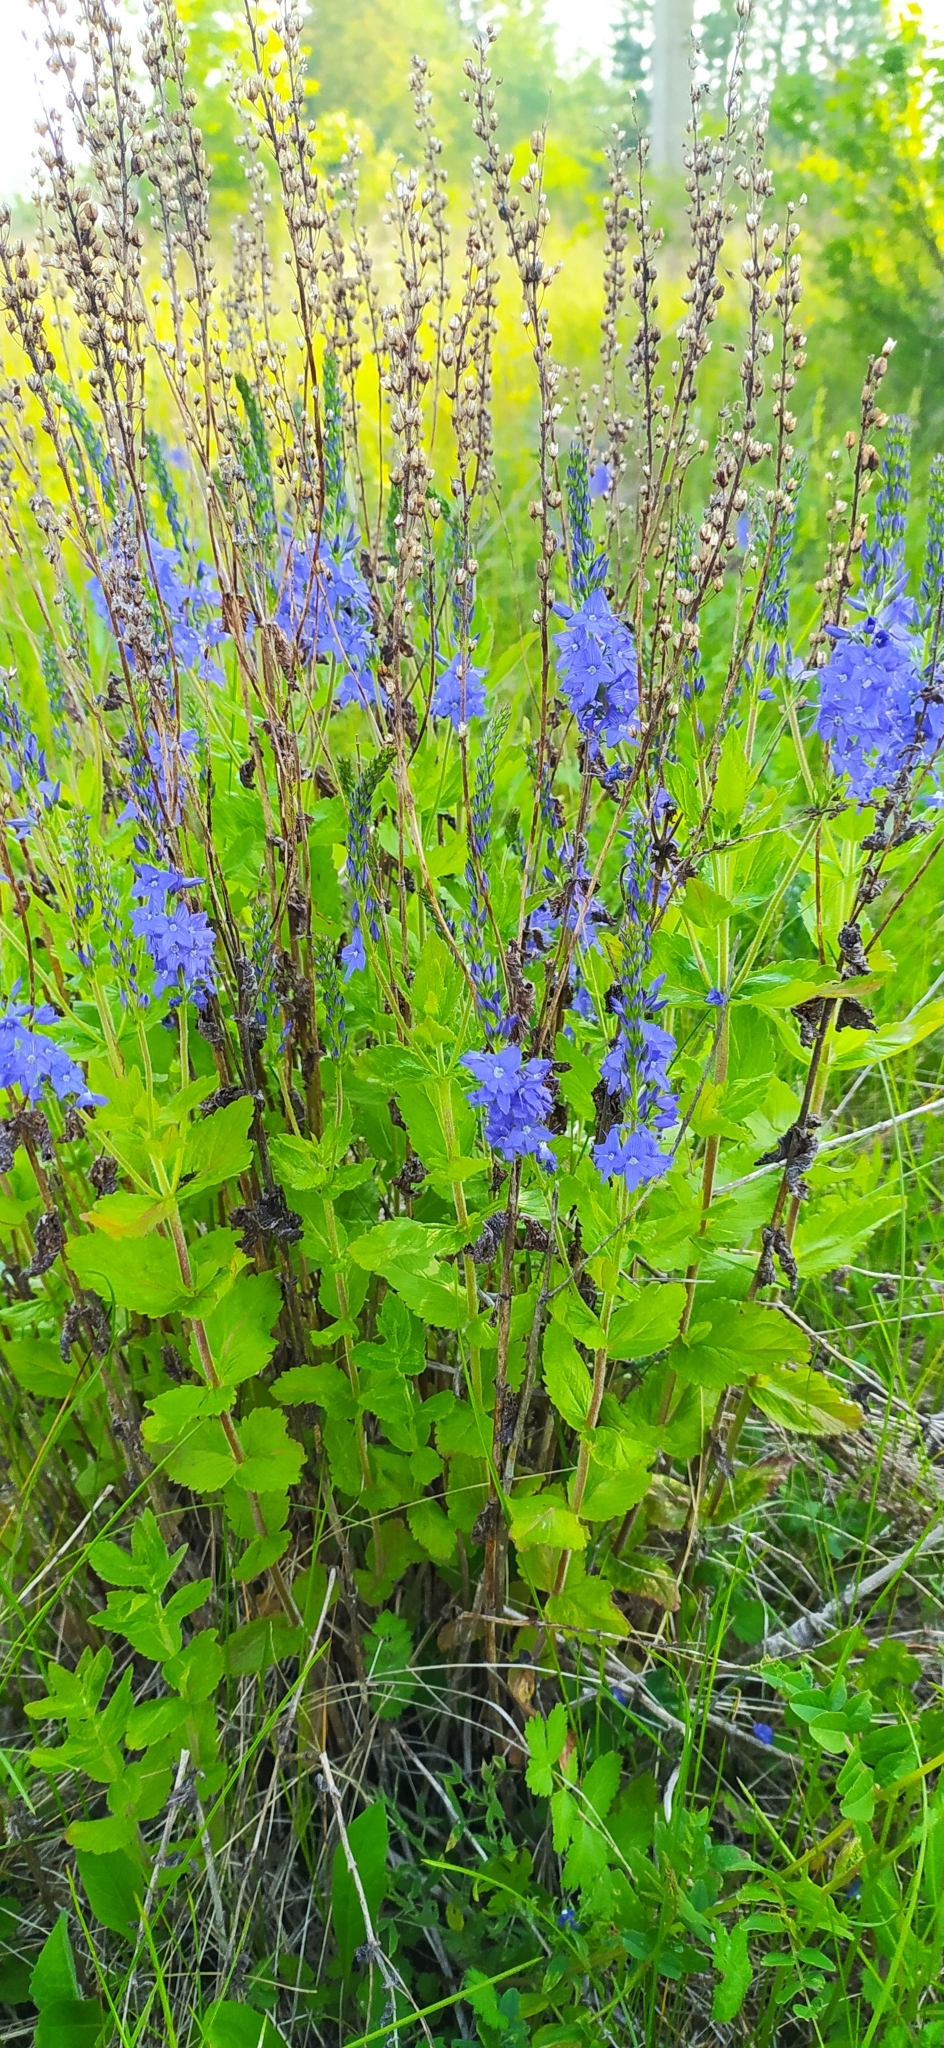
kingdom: Plantae
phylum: Tracheophyta
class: Magnoliopsida
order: Lamiales
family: Plantaginaceae
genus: Veronica
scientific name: Veronica teucrium
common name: Large speedwell
